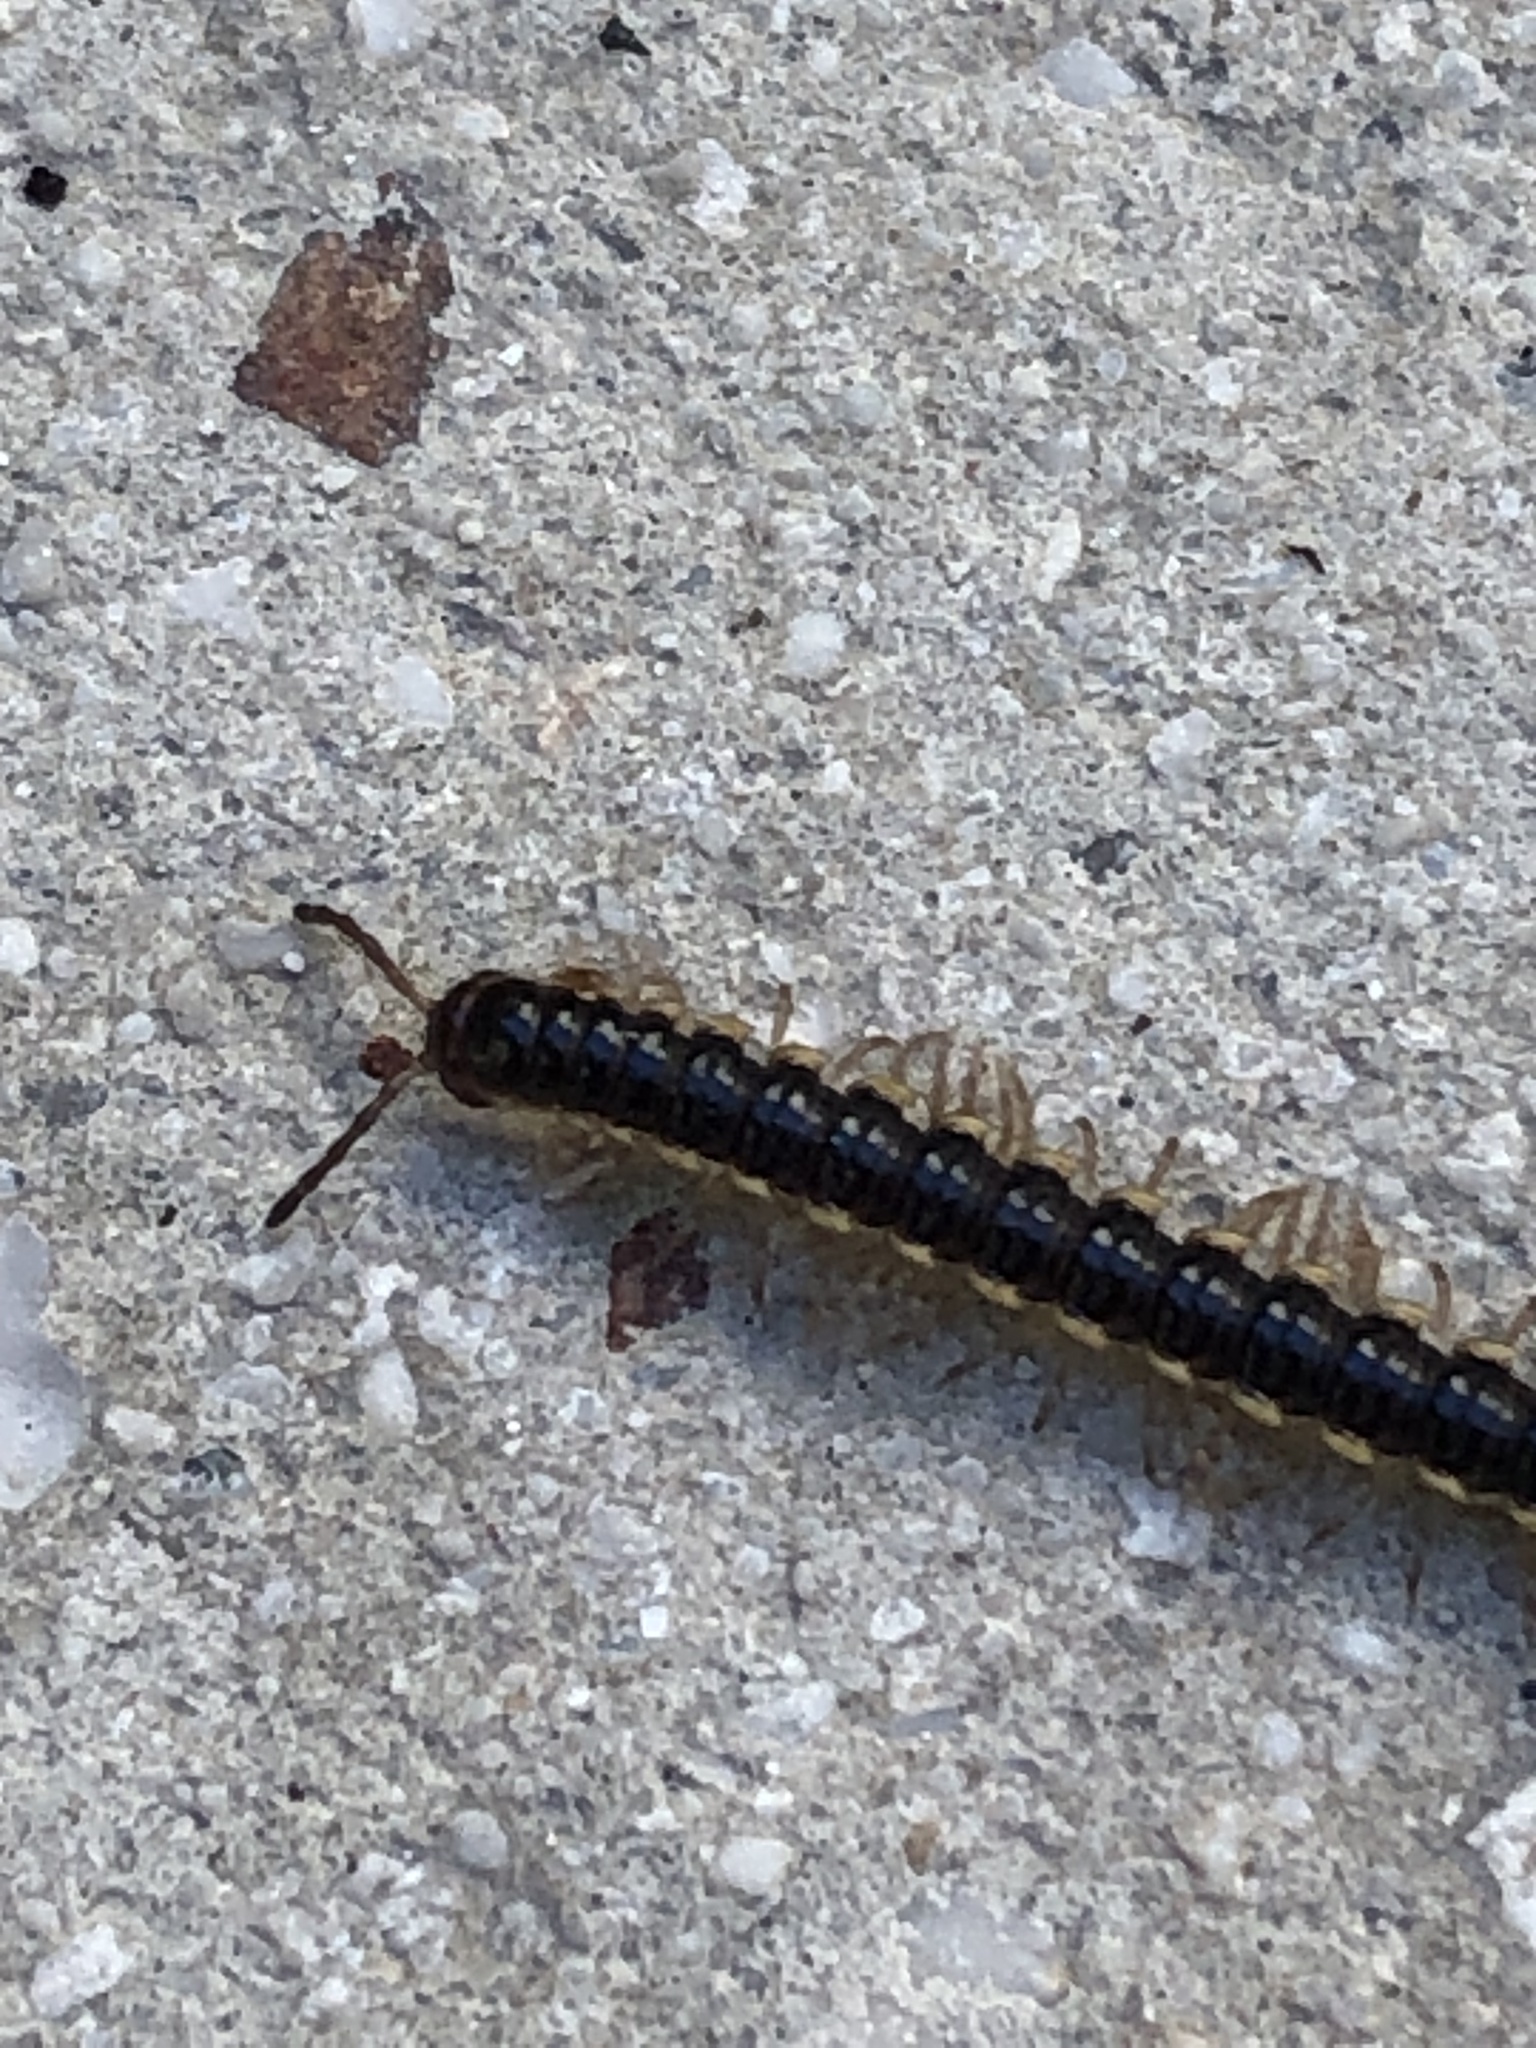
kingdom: Animalia
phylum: Arthropoda
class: Diplopoda
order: Polydesmida
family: Paradoxosomatidae
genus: Orthomorpha
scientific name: Orthomorpha coarctata
